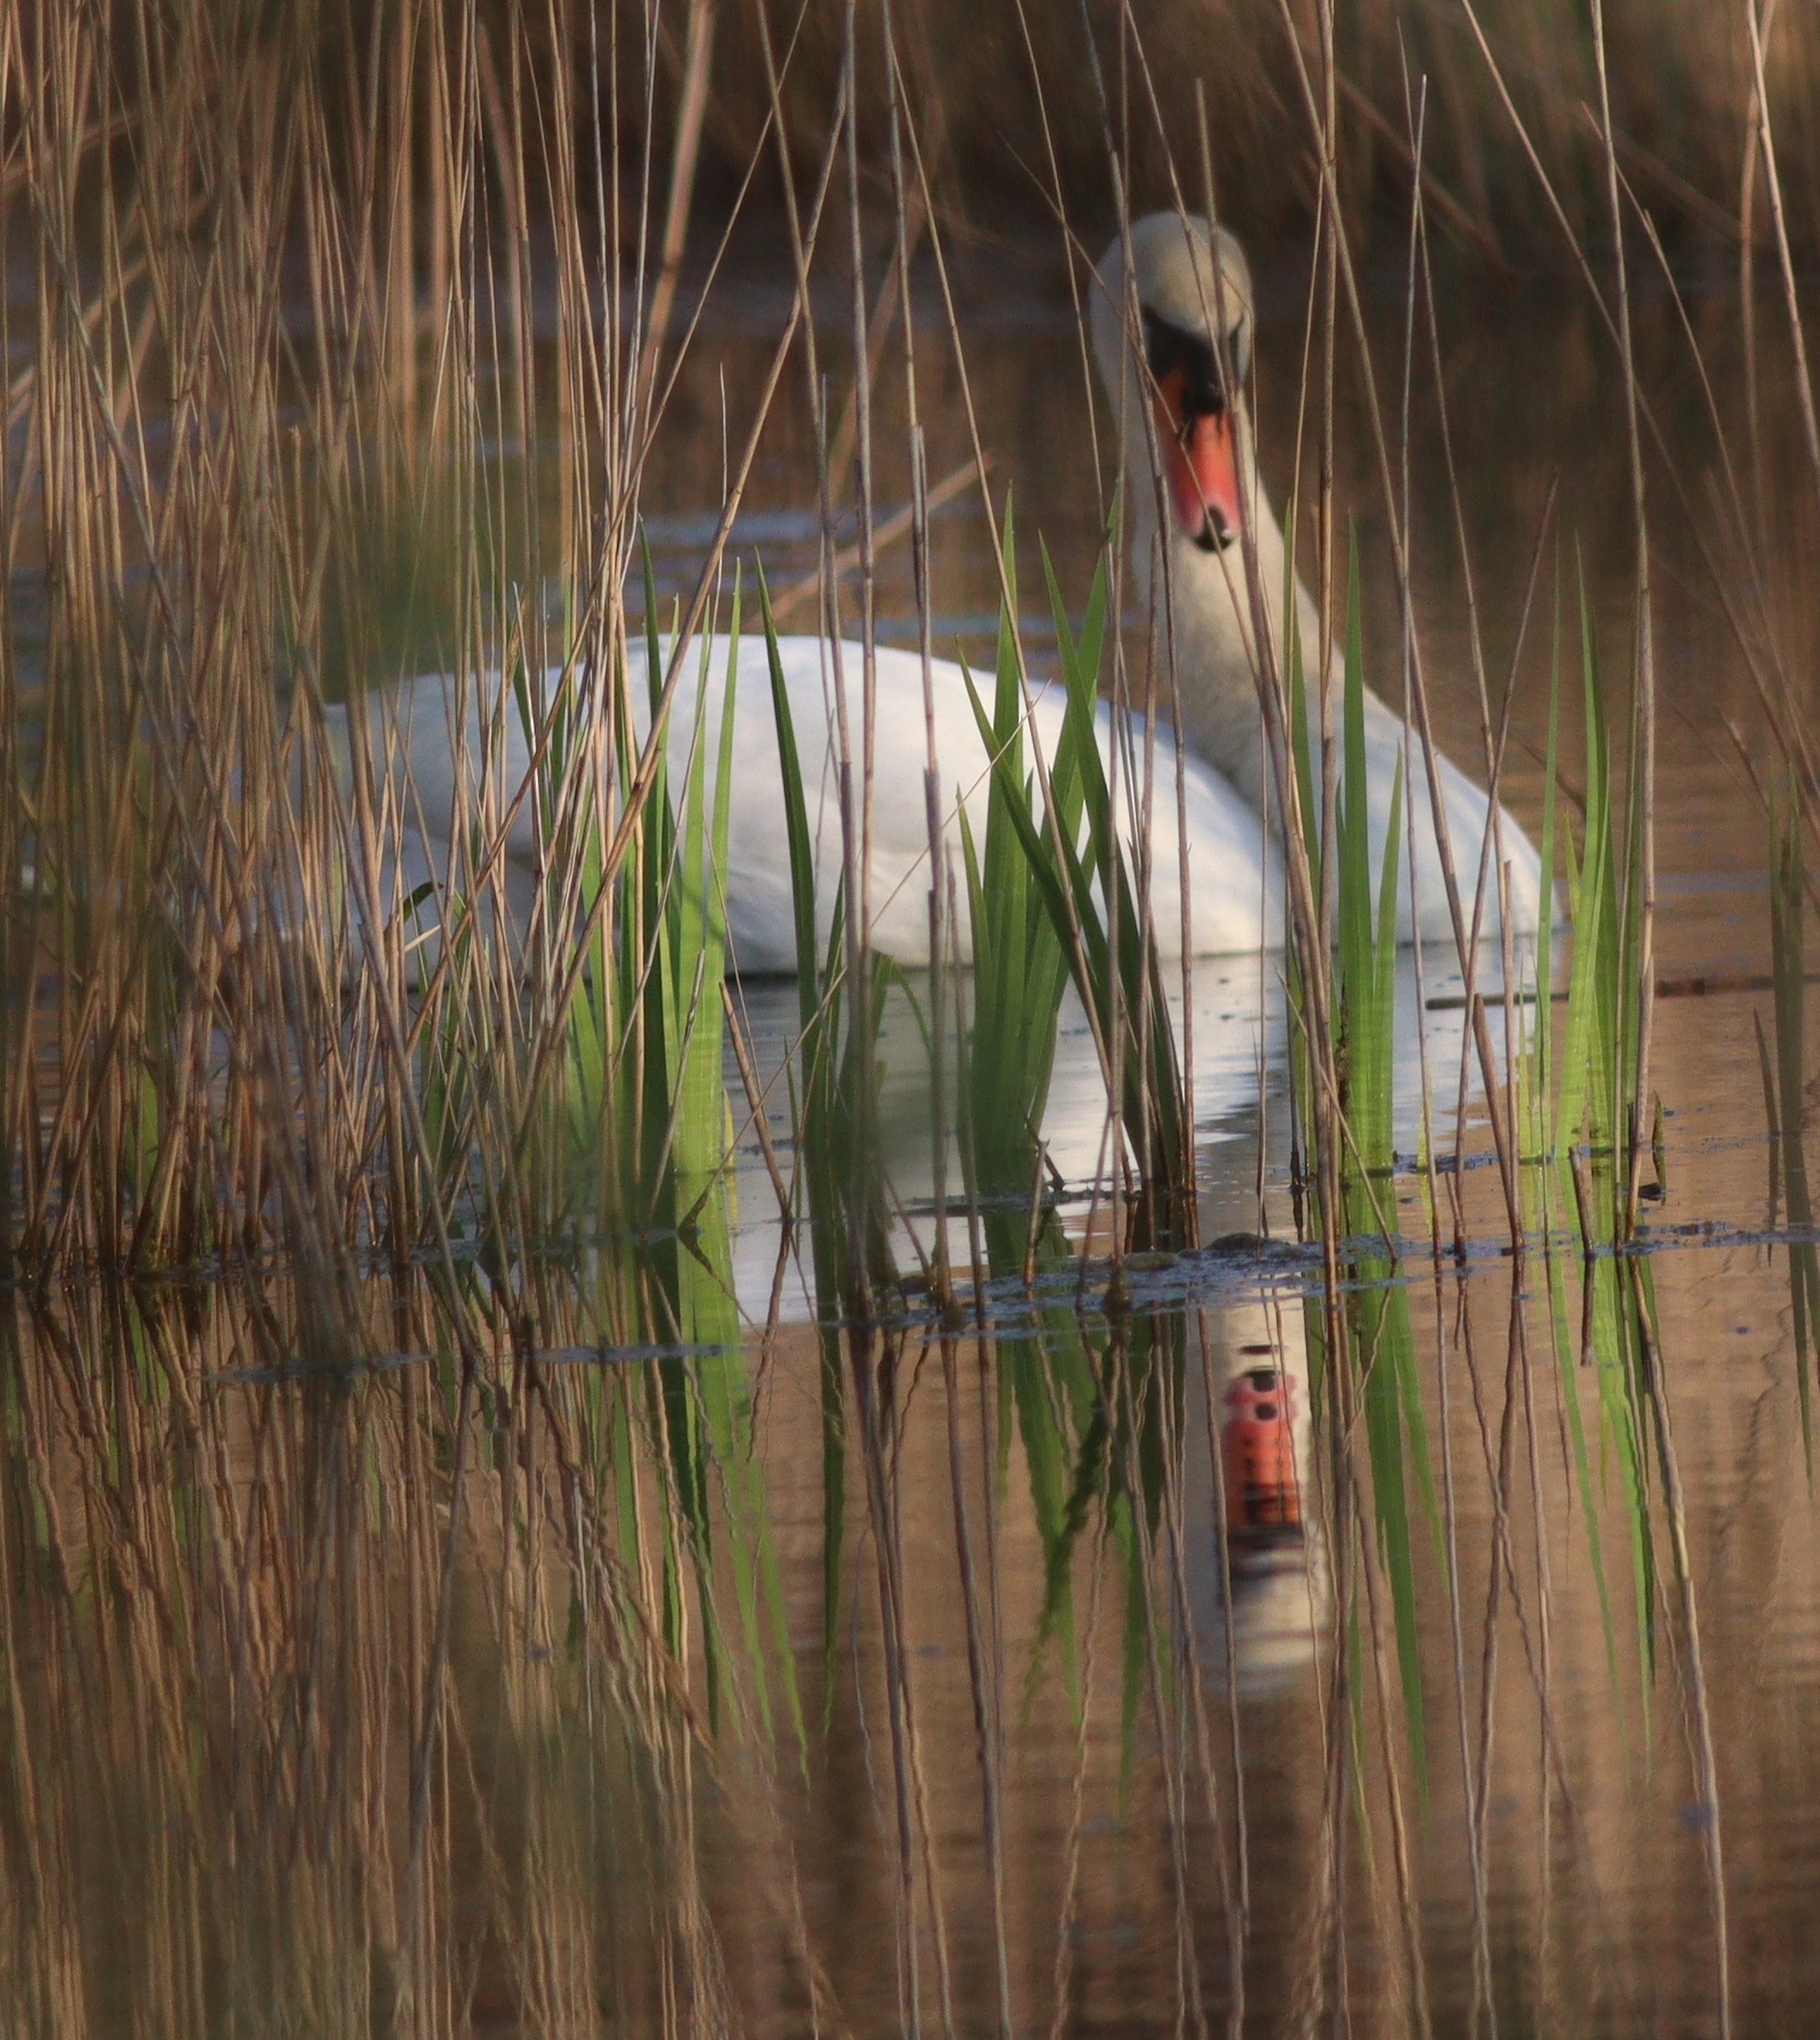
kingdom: Animalia
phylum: Chordata
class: Aves
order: Anseriformes
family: Anatidae
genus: Cygnus
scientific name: Cygnus olor
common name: Mute swan
